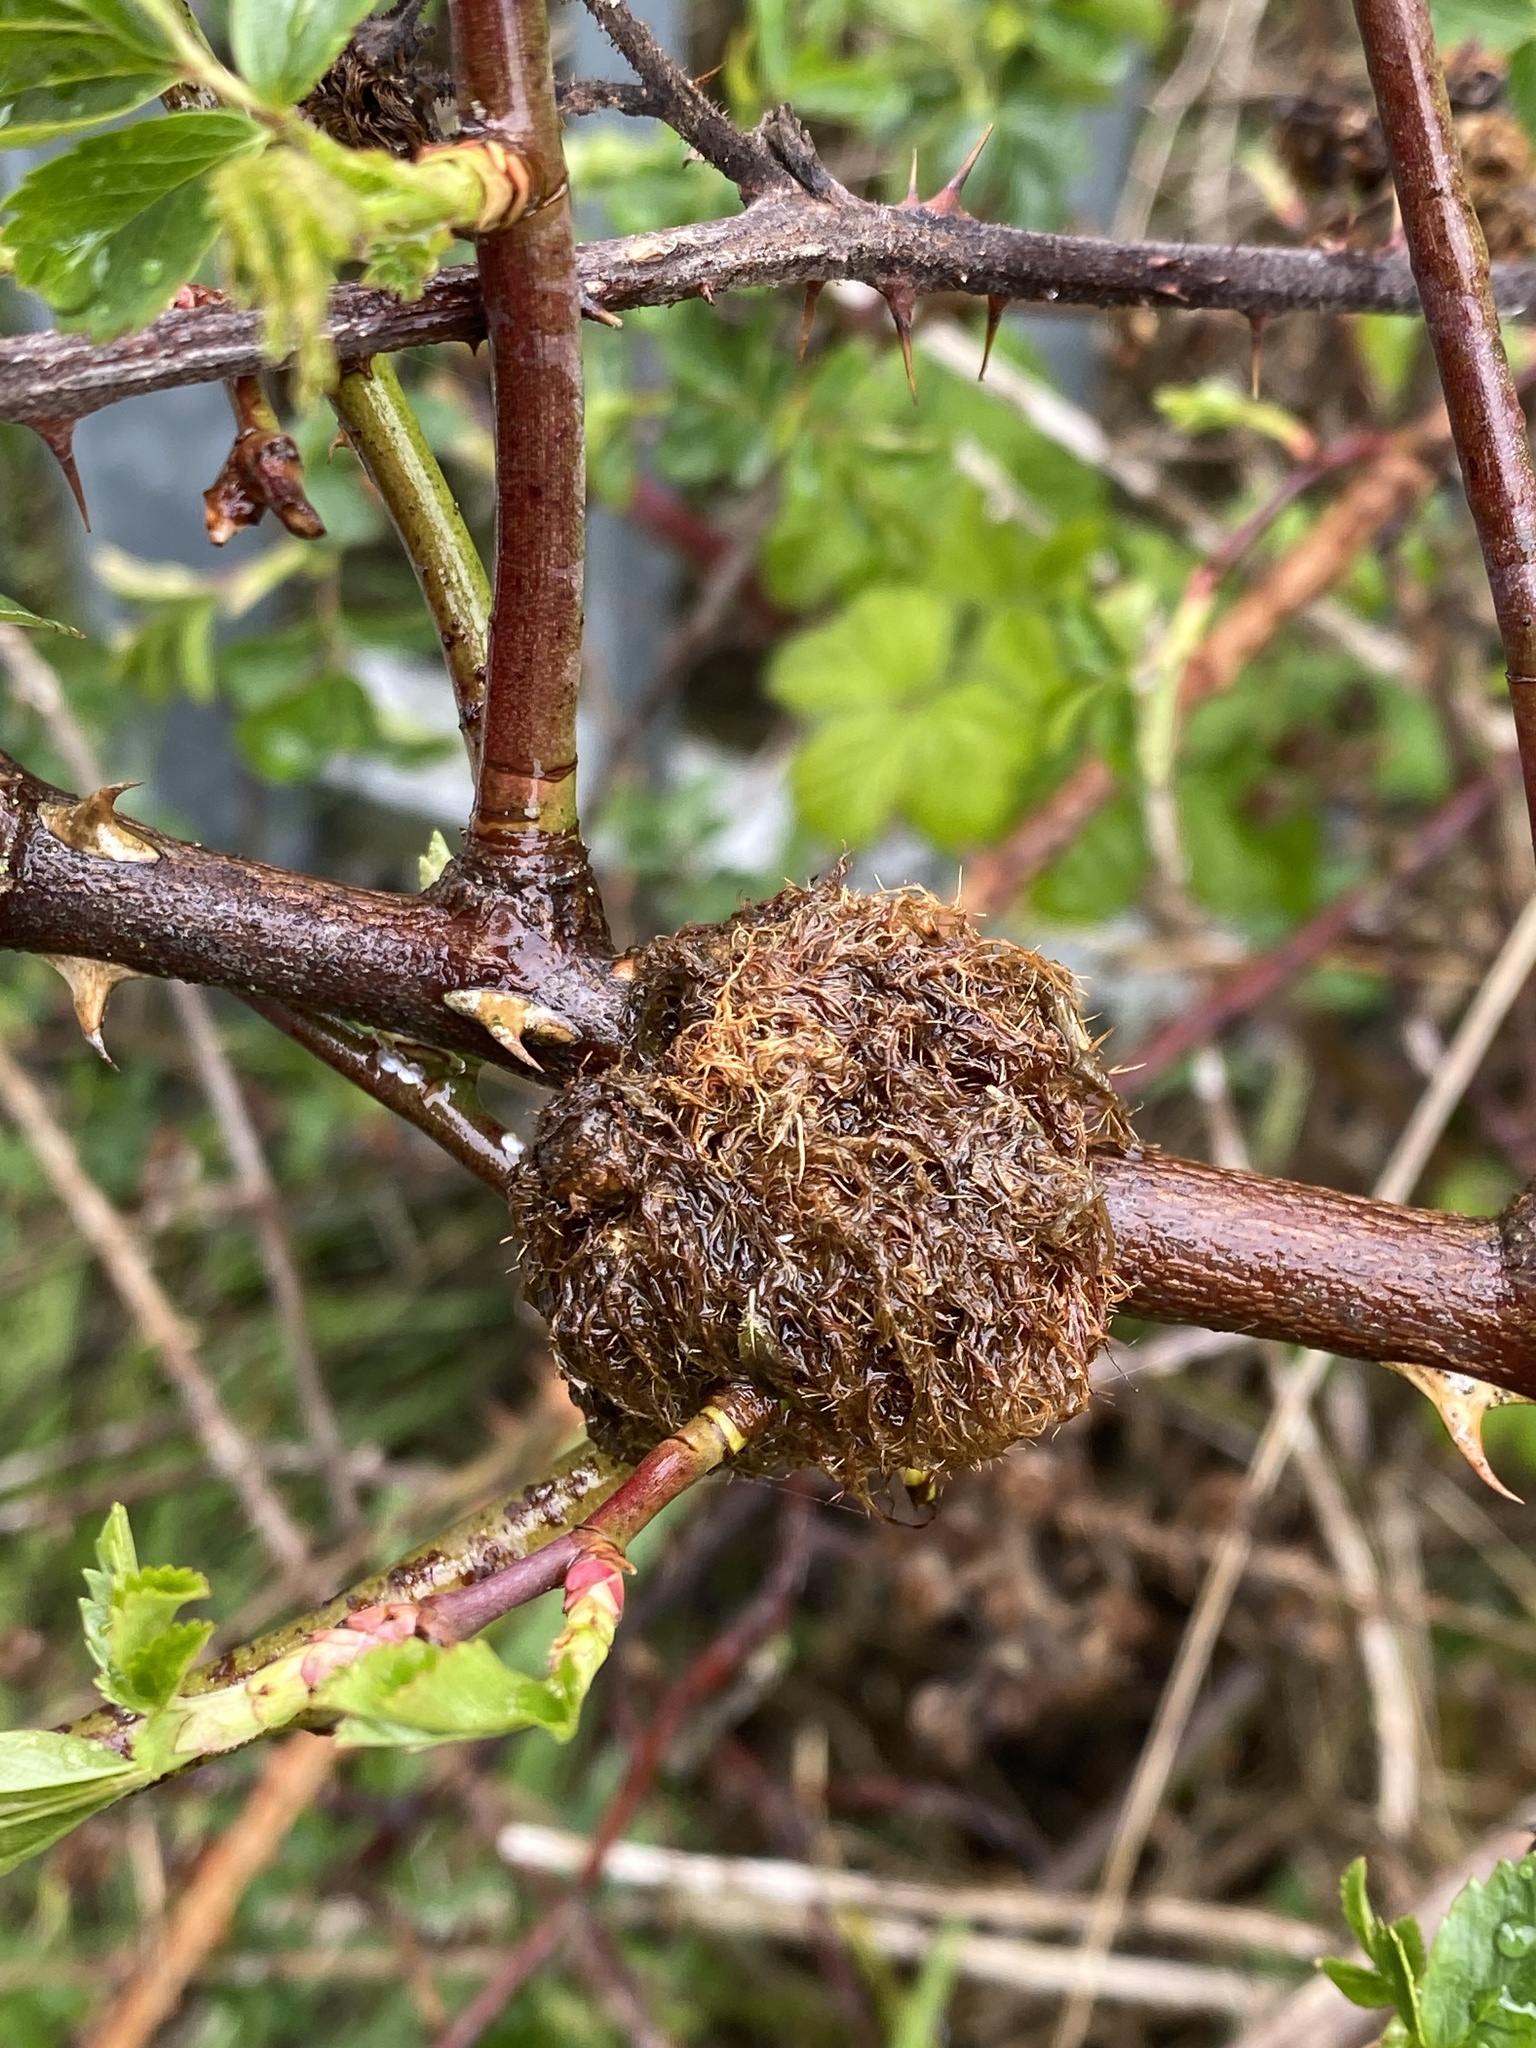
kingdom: Animalia
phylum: Arthropoda
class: Insecta
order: Hymenoptera
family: Cynipidae
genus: Diplolepis
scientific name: Diplolepis rosae
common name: Bedeguar gall
